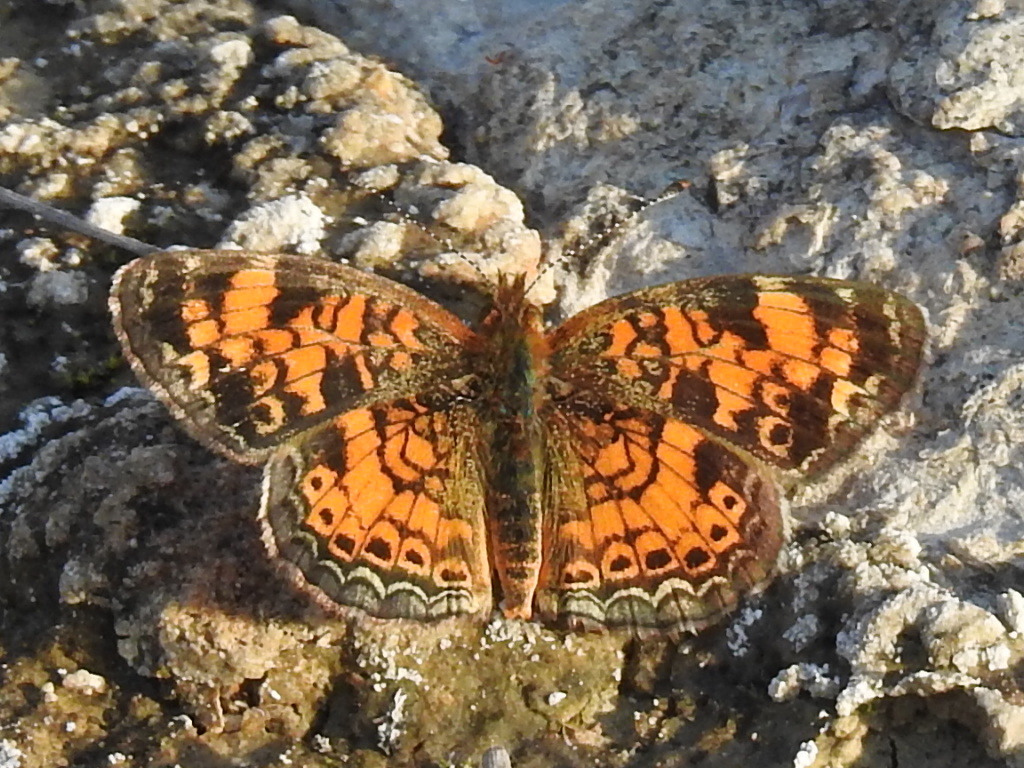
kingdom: Animalia
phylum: Arthropoda
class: Insecta
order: Lepidoptera
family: Nymphalidae
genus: Phyciodes
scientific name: Phyciodes tharos
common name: Pearl crescent
